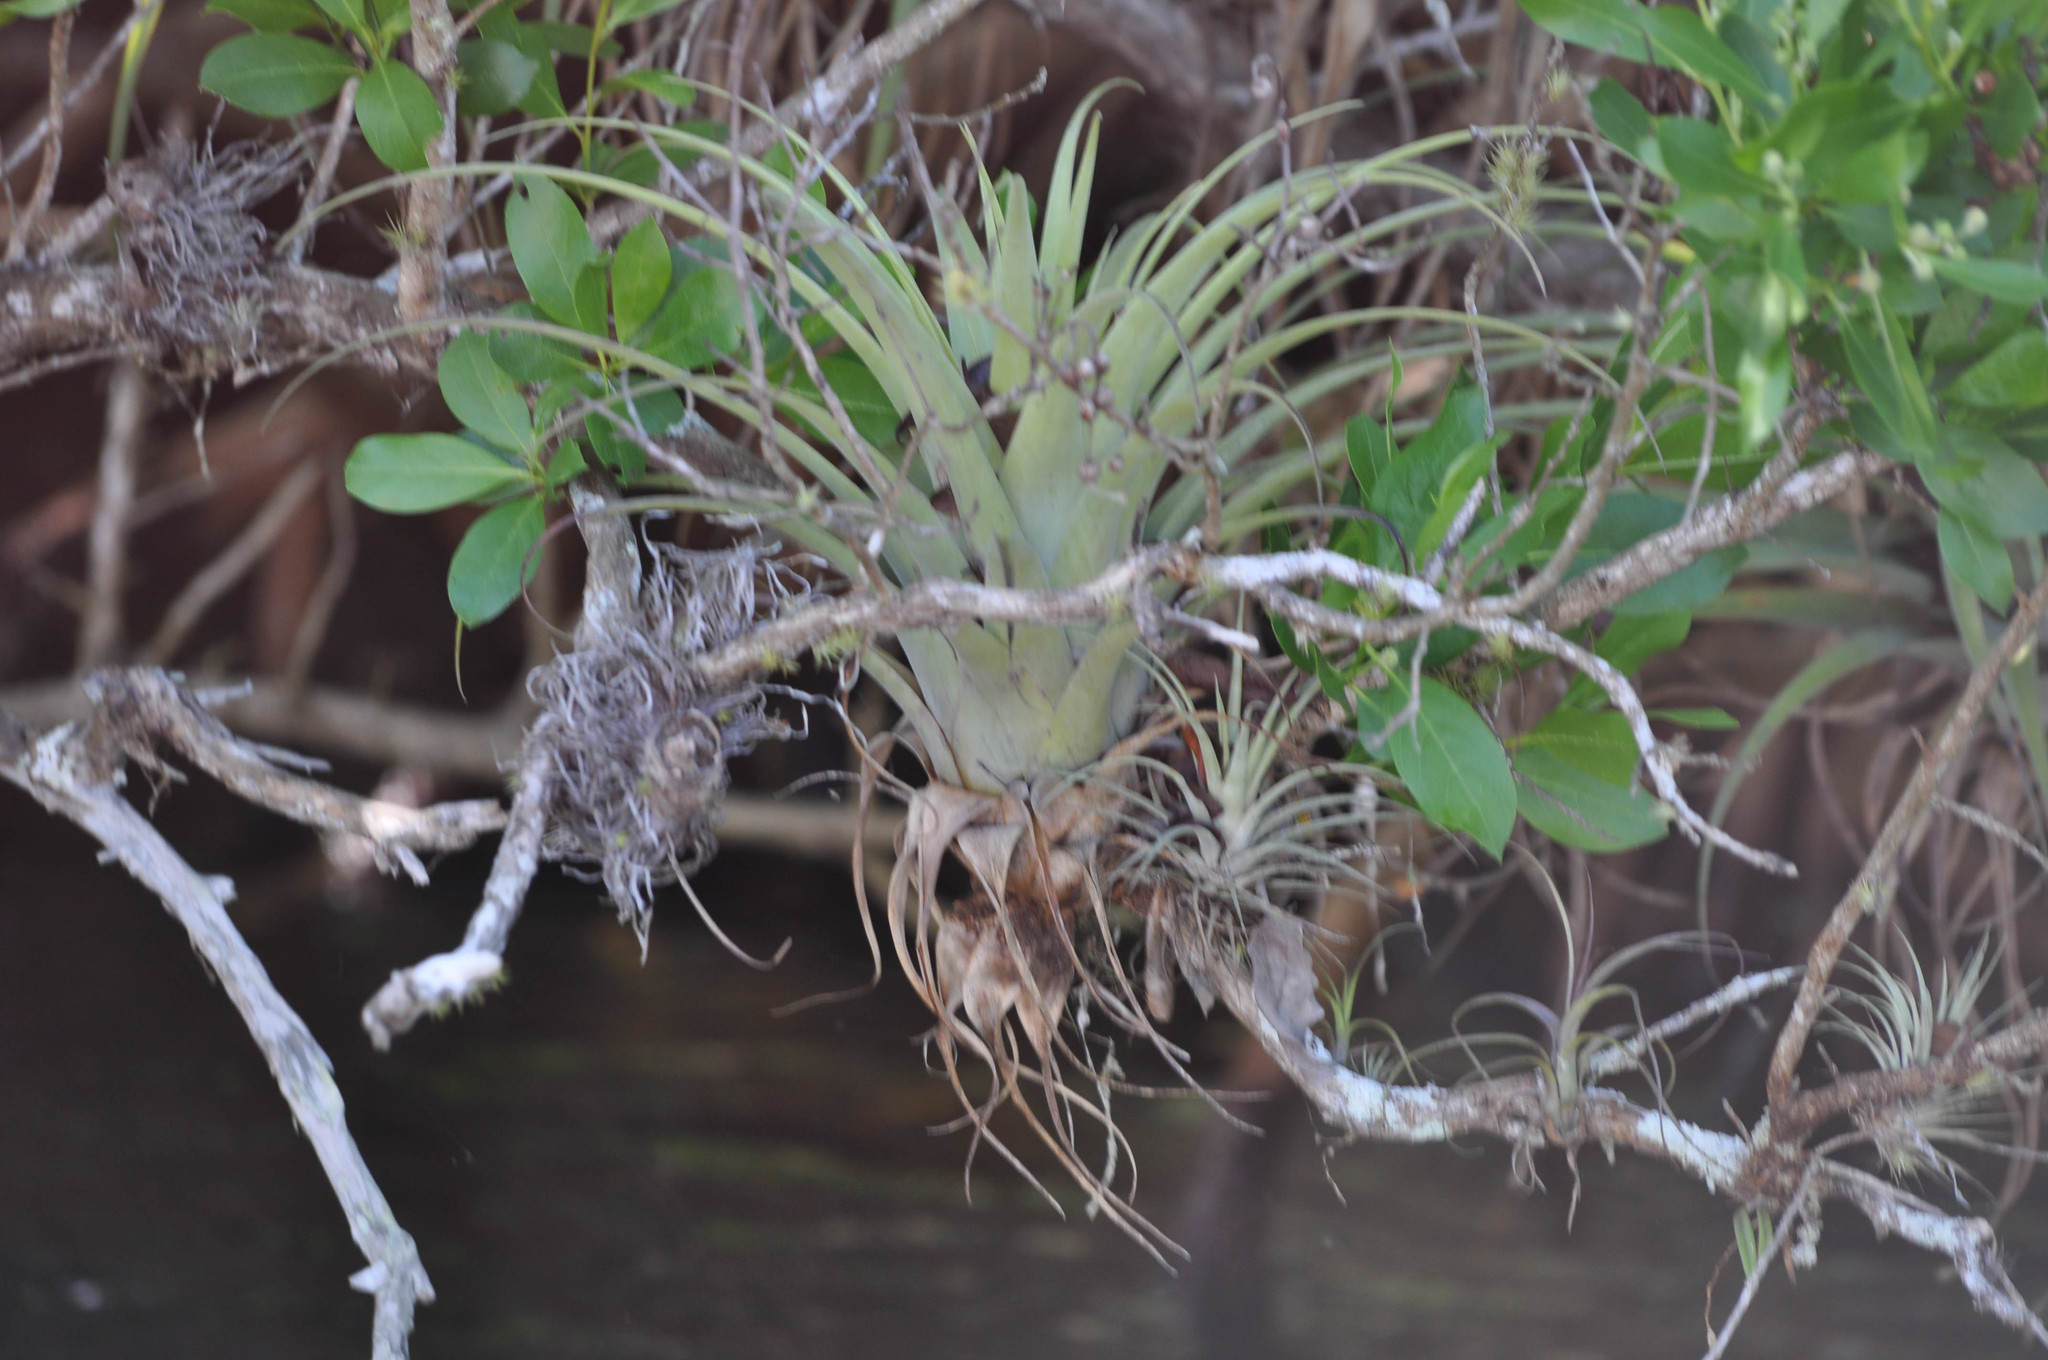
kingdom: Plantae
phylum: Tracheophyta
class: Liliopsida
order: Poales
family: Bromeliaceae
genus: Tillandsia
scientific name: Tillandsia utriculata
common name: Wild pine
